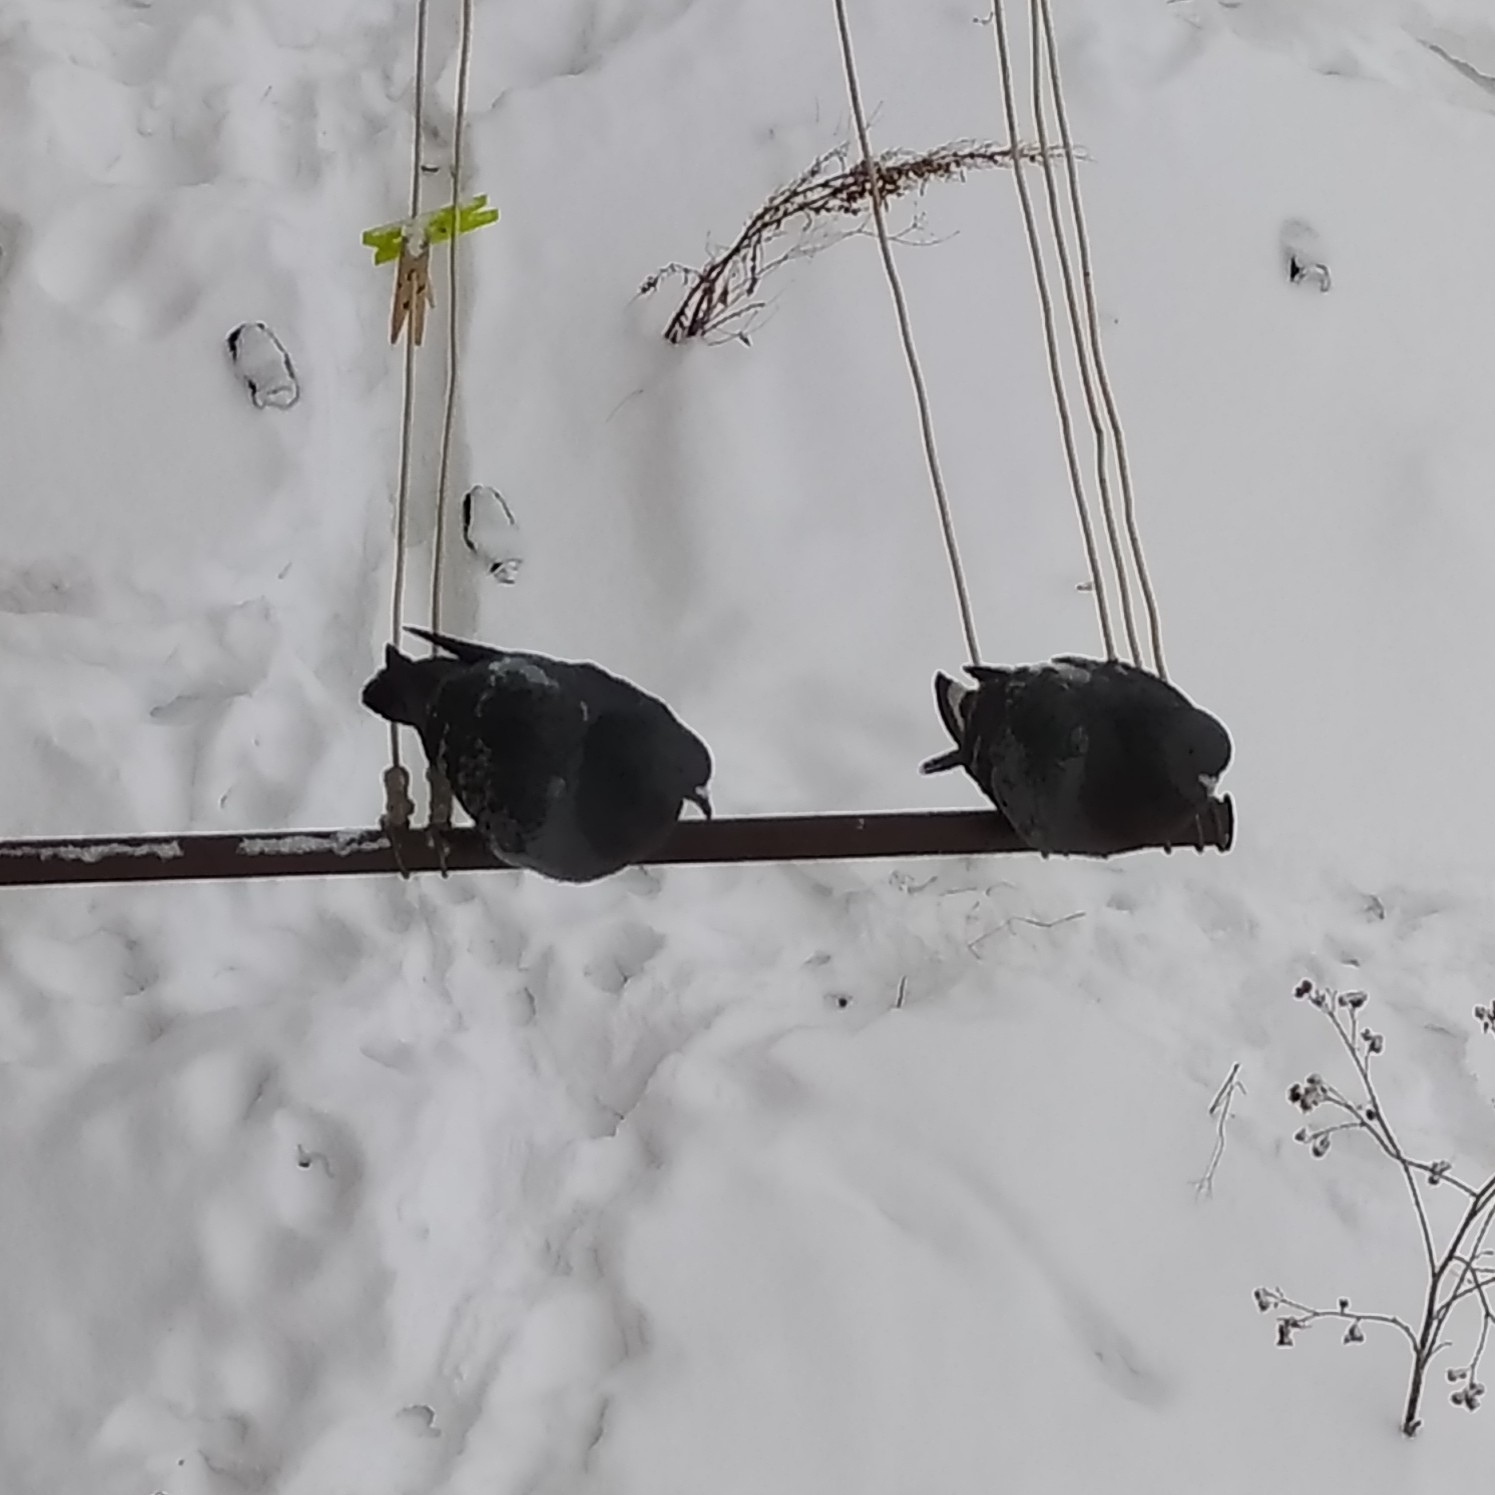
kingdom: Animalia
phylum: Chordata
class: Aves
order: Columbiformes
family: Columbidae
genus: Columba
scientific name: Columba livia
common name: Rock pigeon
